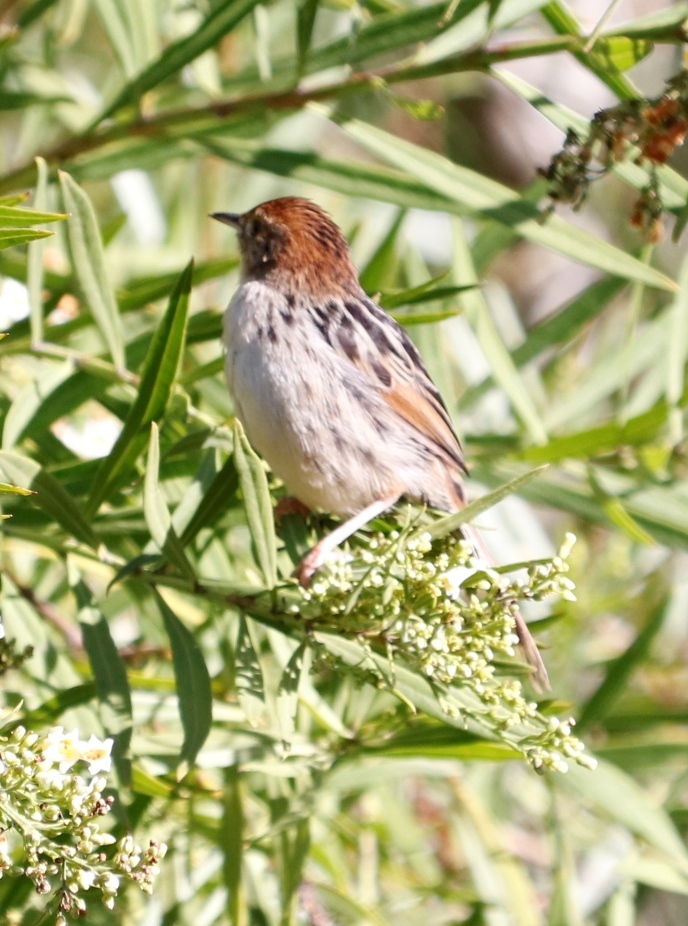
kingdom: Animalia
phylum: Chordata
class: Aves
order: Passeriformes
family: Cisticolidae
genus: Cisticola
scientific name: Cisticola tinniens
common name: Levaillant's cisticola
